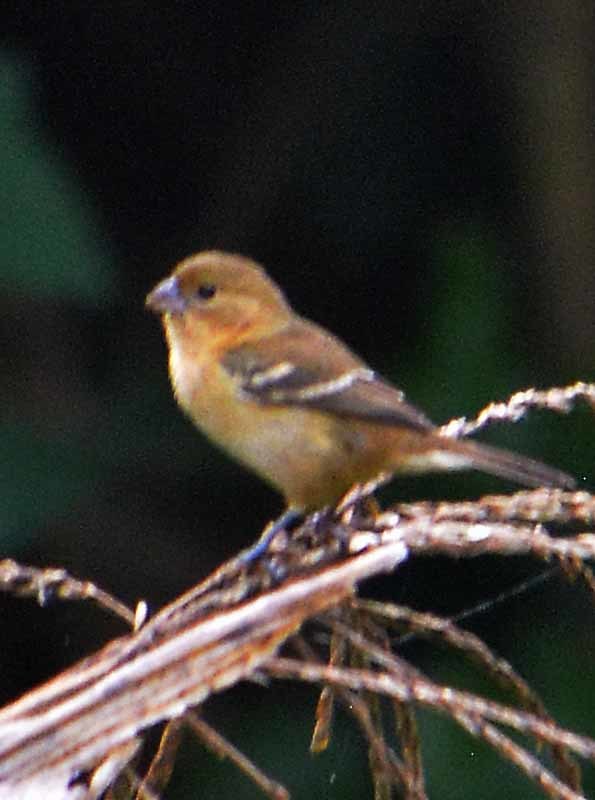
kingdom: Animalia
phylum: Chordata
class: Aves
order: Passeriformes
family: Thraupidae
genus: Sporophila
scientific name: Sporophila morelleti
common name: Morelet's seedeater
